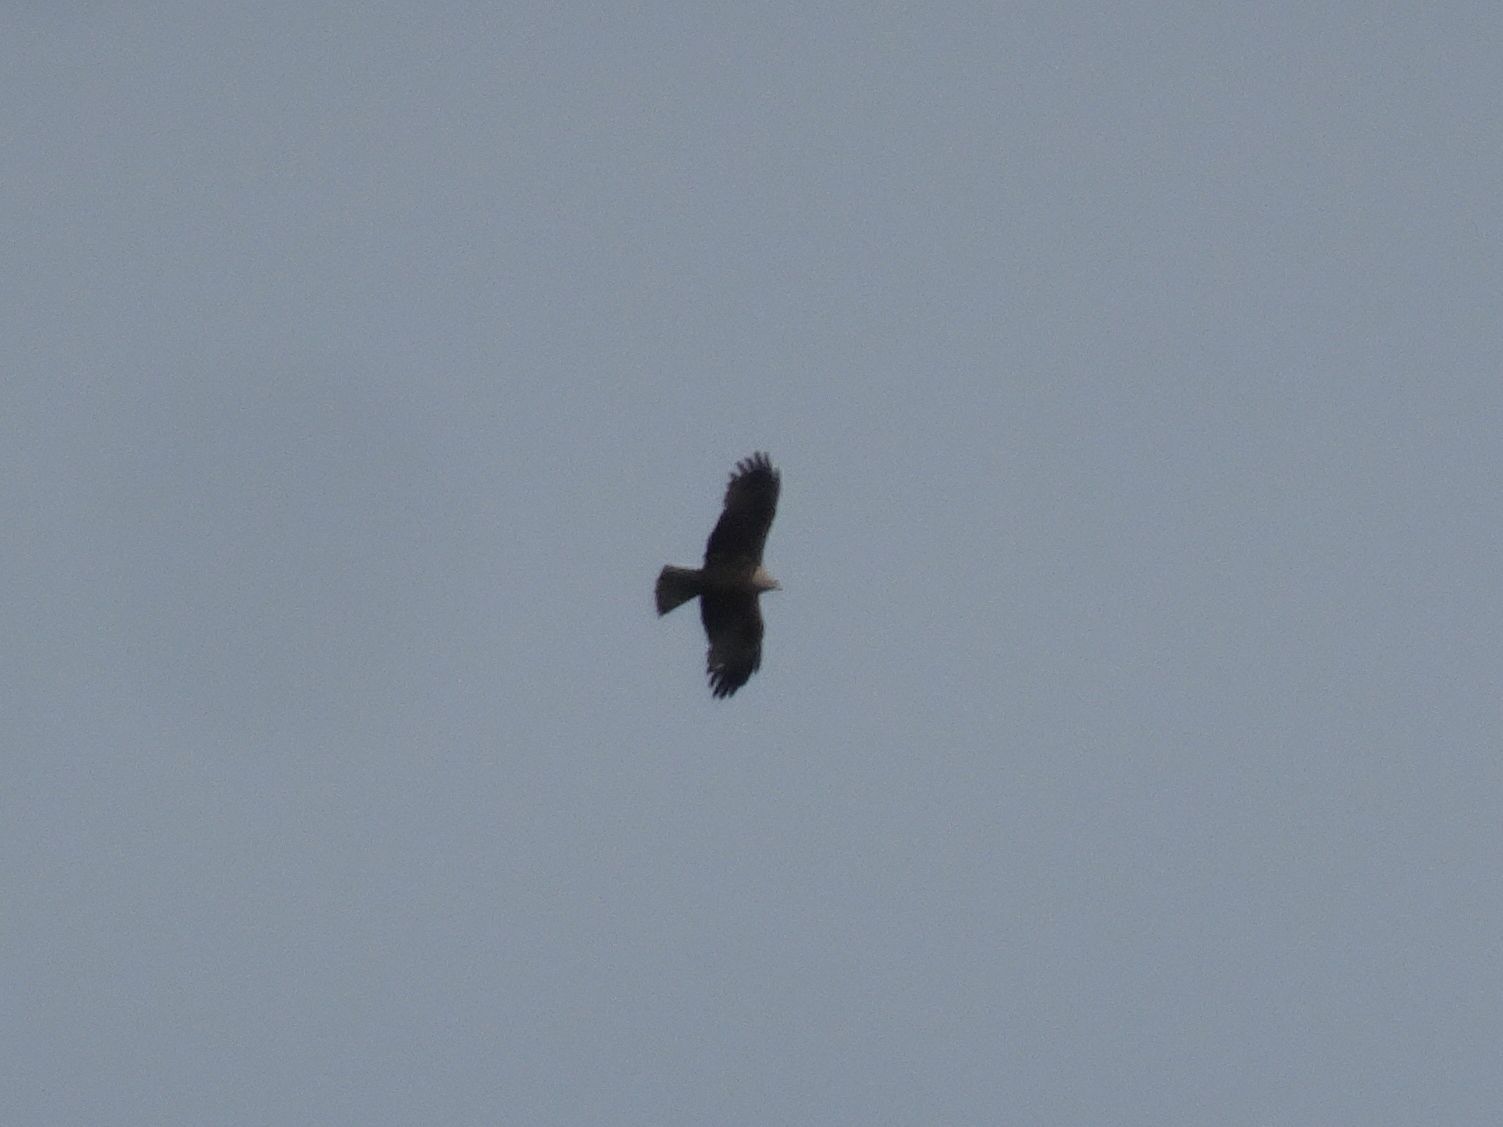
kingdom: Animalia
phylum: Chordata
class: Aves
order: Accipitriformes
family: Accipitridae
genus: Milvus
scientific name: Milvus migrans
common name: Black kite
